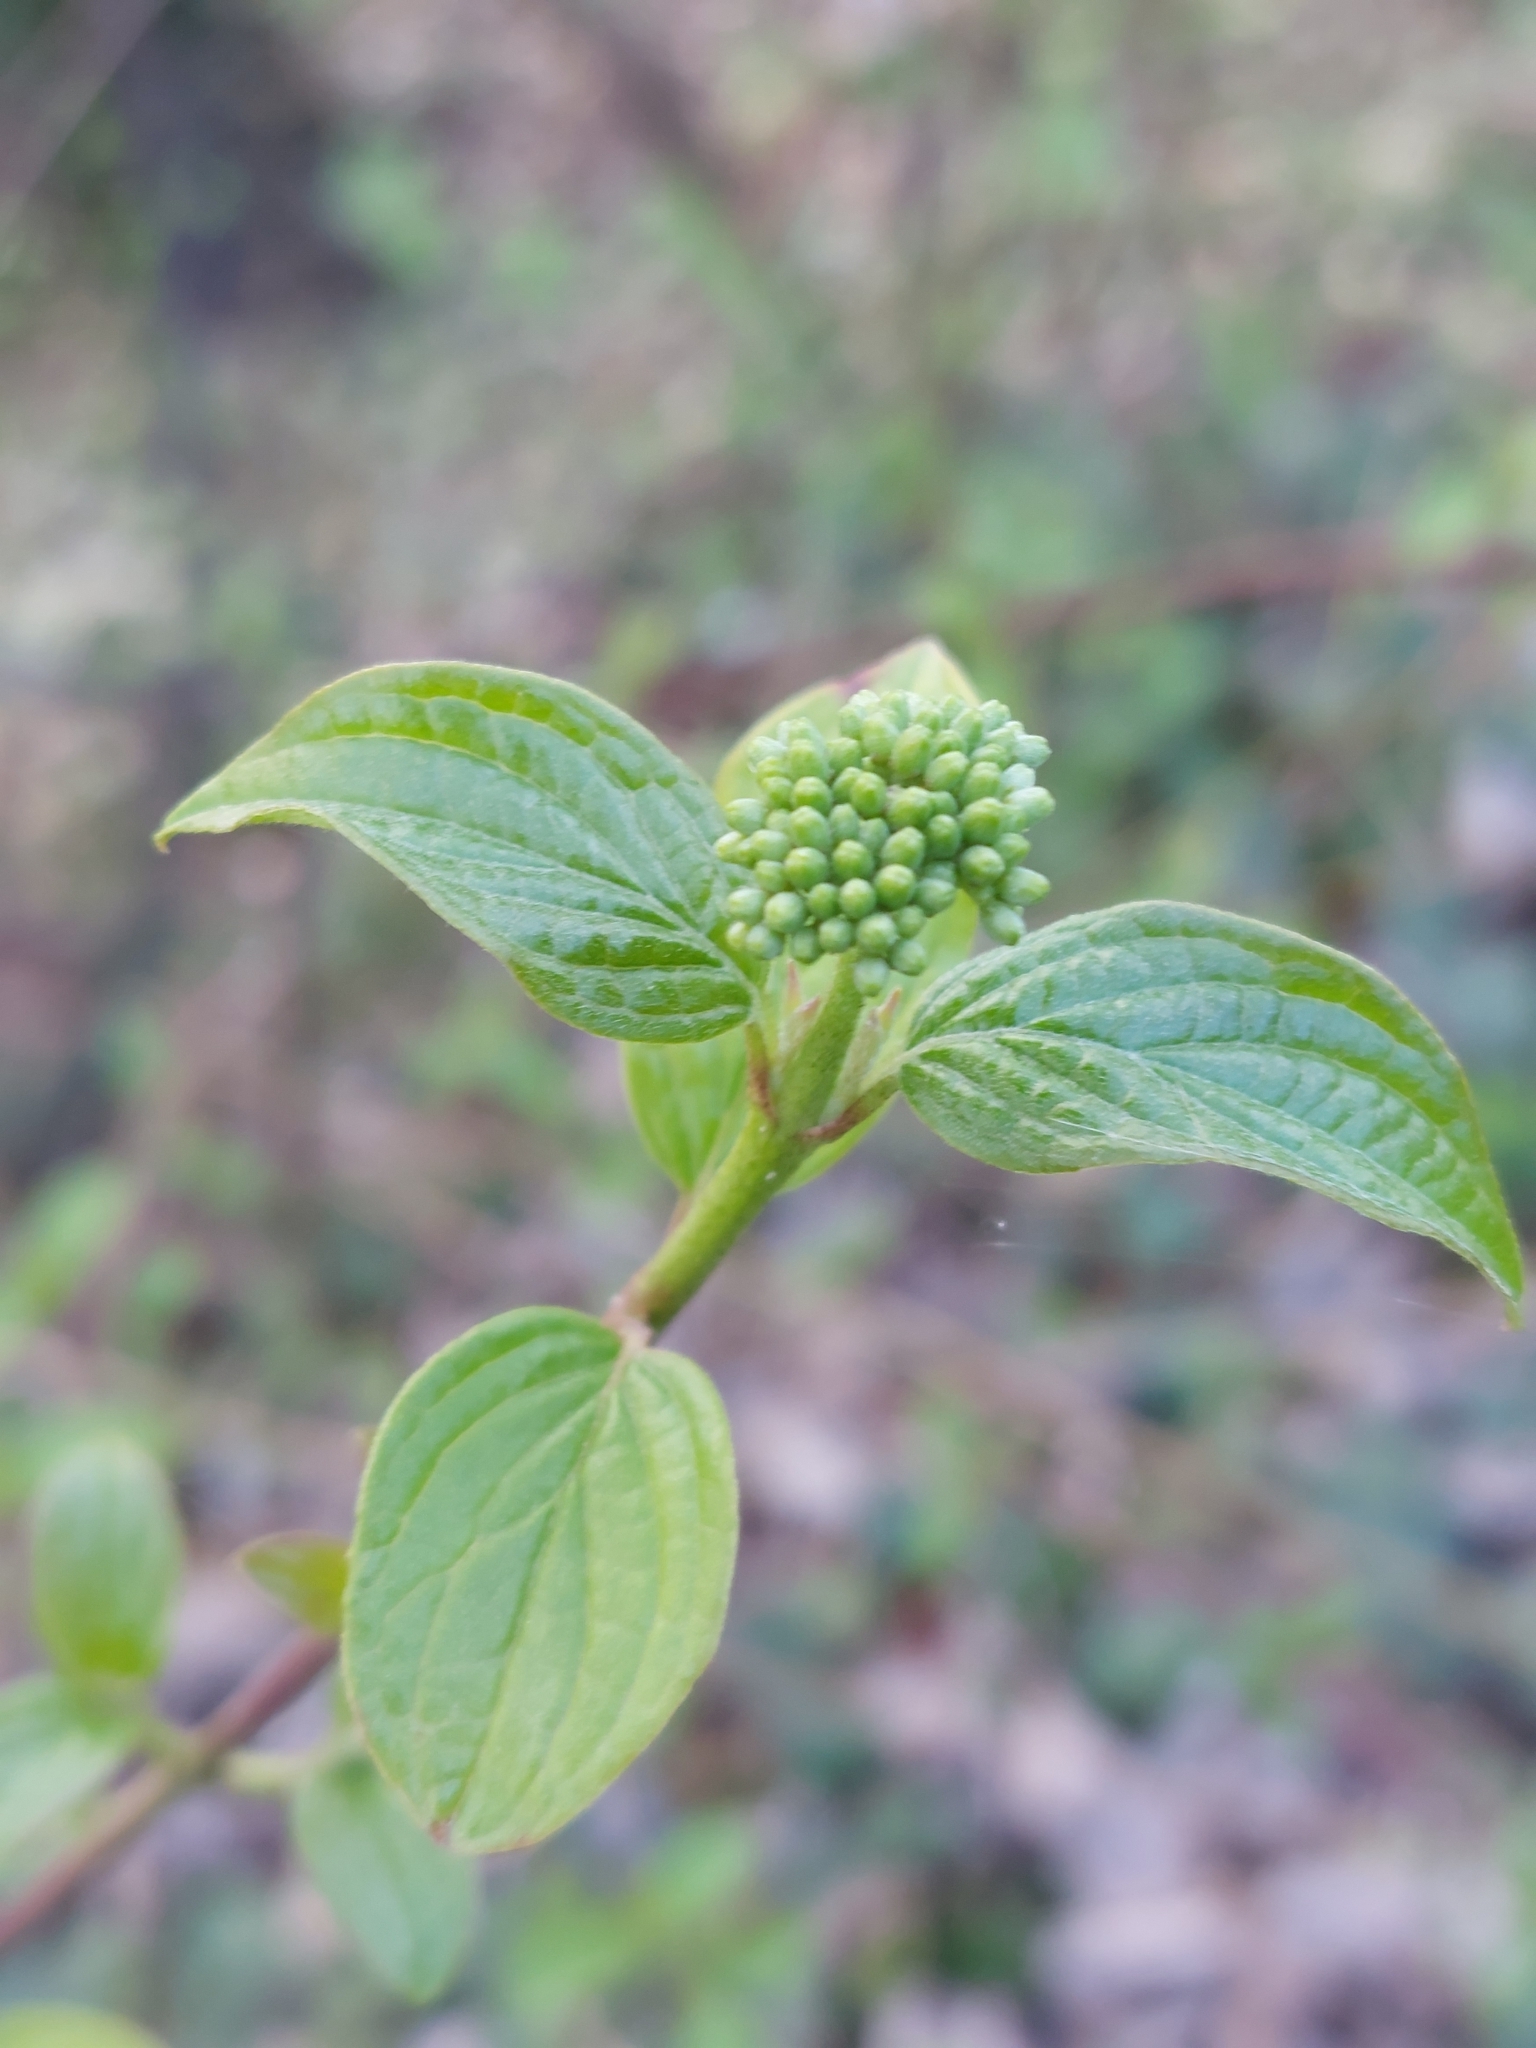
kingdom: Plantae
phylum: Tracheophyta
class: Magnoliopsida
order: Cornales
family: Cornaceae
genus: Cornus
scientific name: Cornus sanguinea
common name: Dogwood
